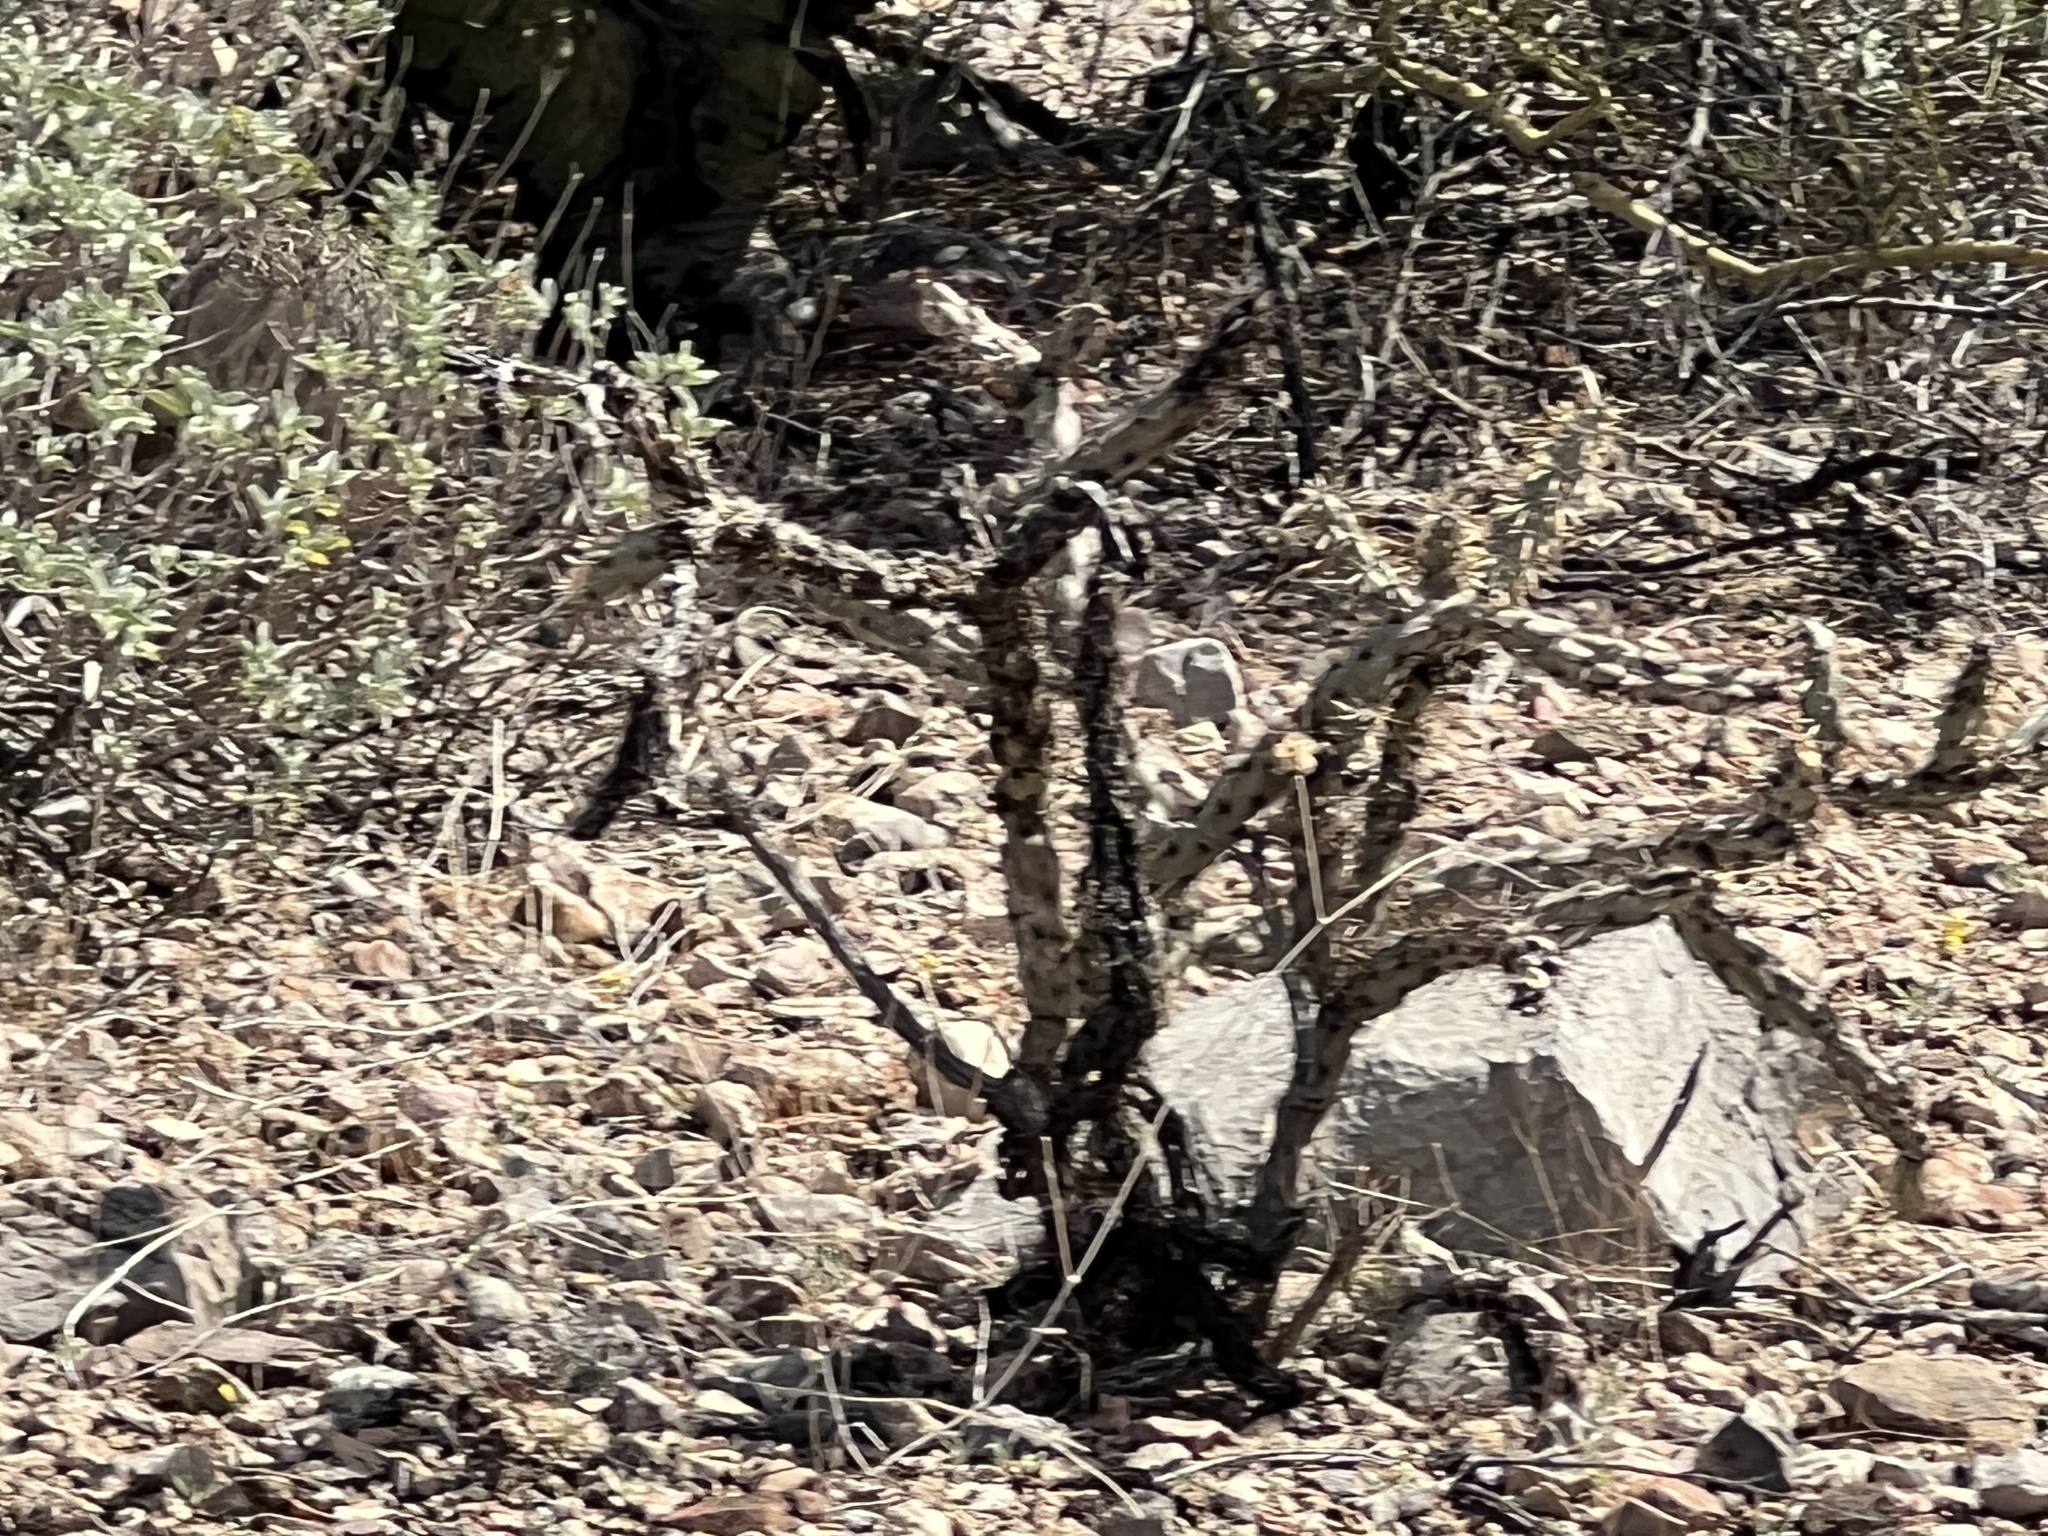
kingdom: Plantae
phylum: Tracheophyta
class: Magnoliopsida
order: Caryophyllales
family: Cactaceae
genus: Cylindropuntia
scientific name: Cylindropuntia thurberi
